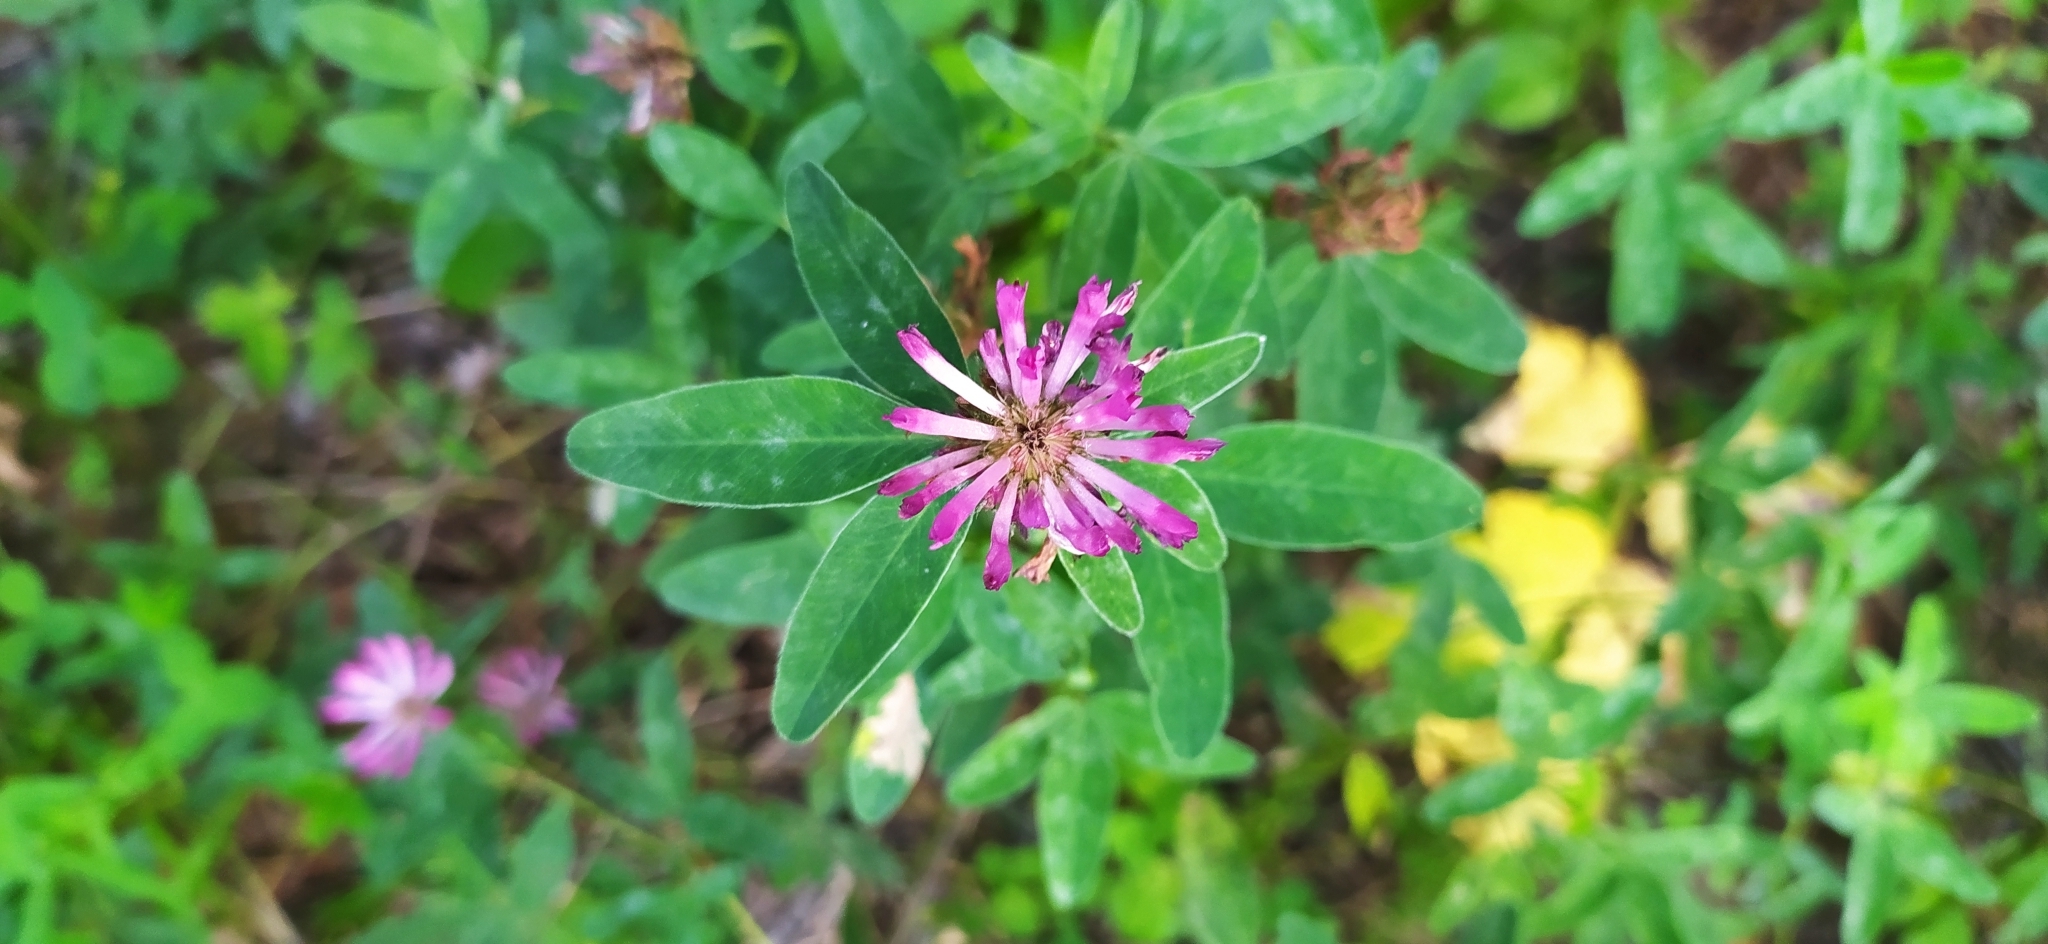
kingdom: Plantae
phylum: Tracheophyta
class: Magnoliopsida
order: Fabales
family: Fabaceae
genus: Trifolium
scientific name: Trifolium medium
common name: Zigzag clover
